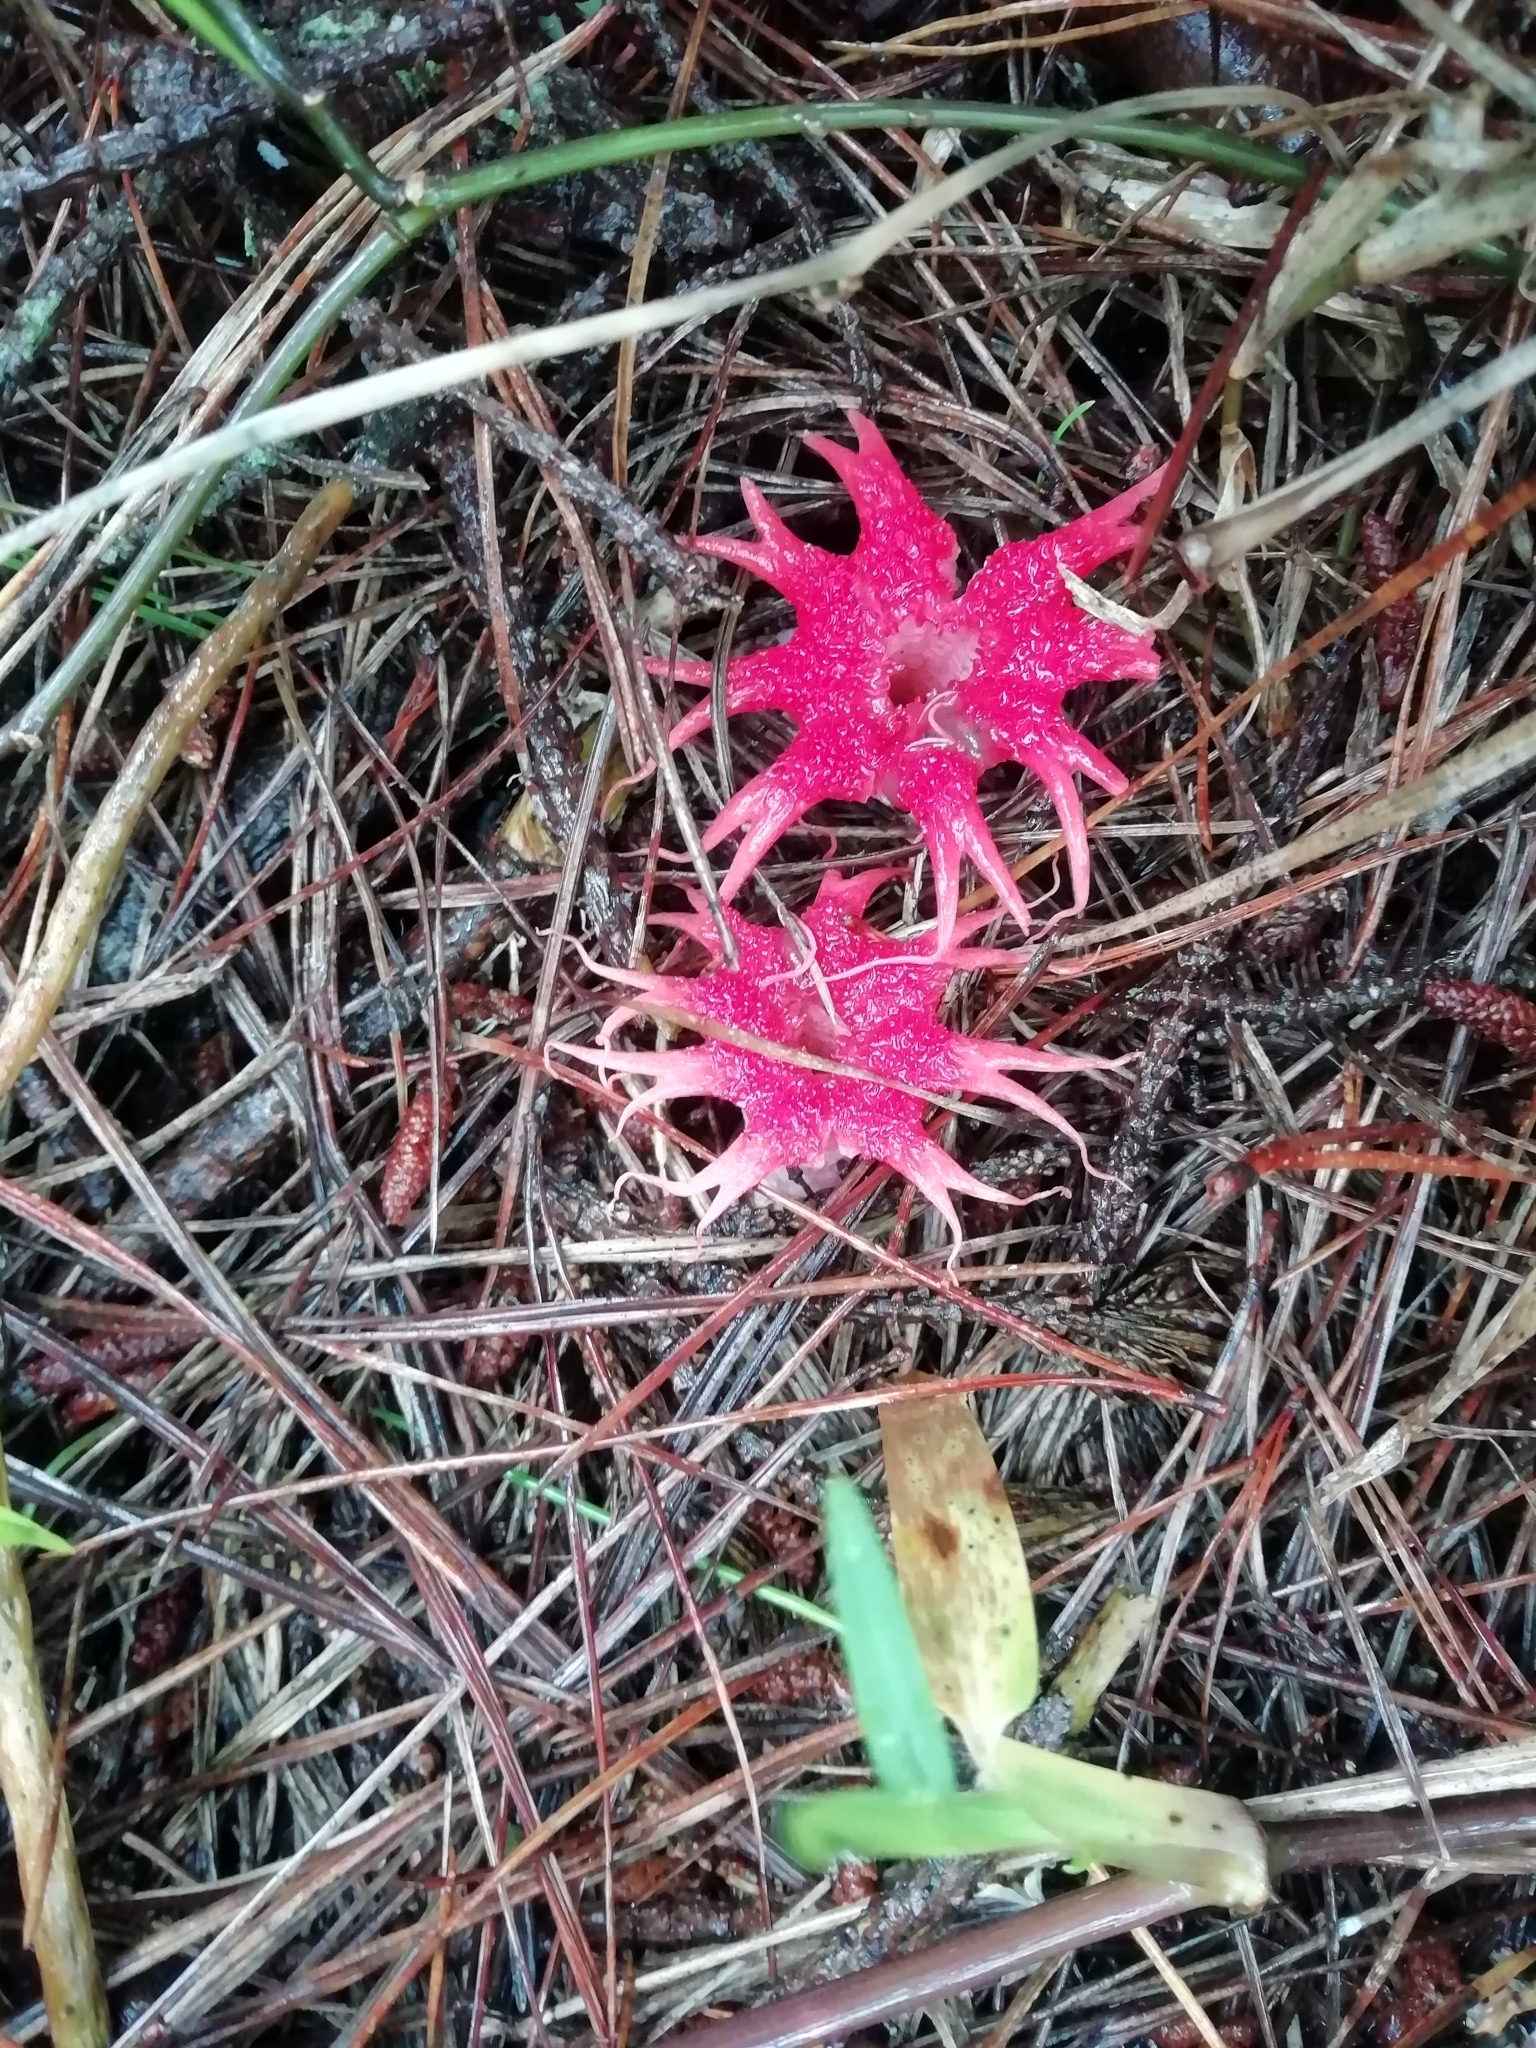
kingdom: Fungi
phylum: Basidiomycota
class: Agaricomycetes
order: Phallales
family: Phallaceae
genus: Aseroe
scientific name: Aseroe rubra
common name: Starfish fungus
